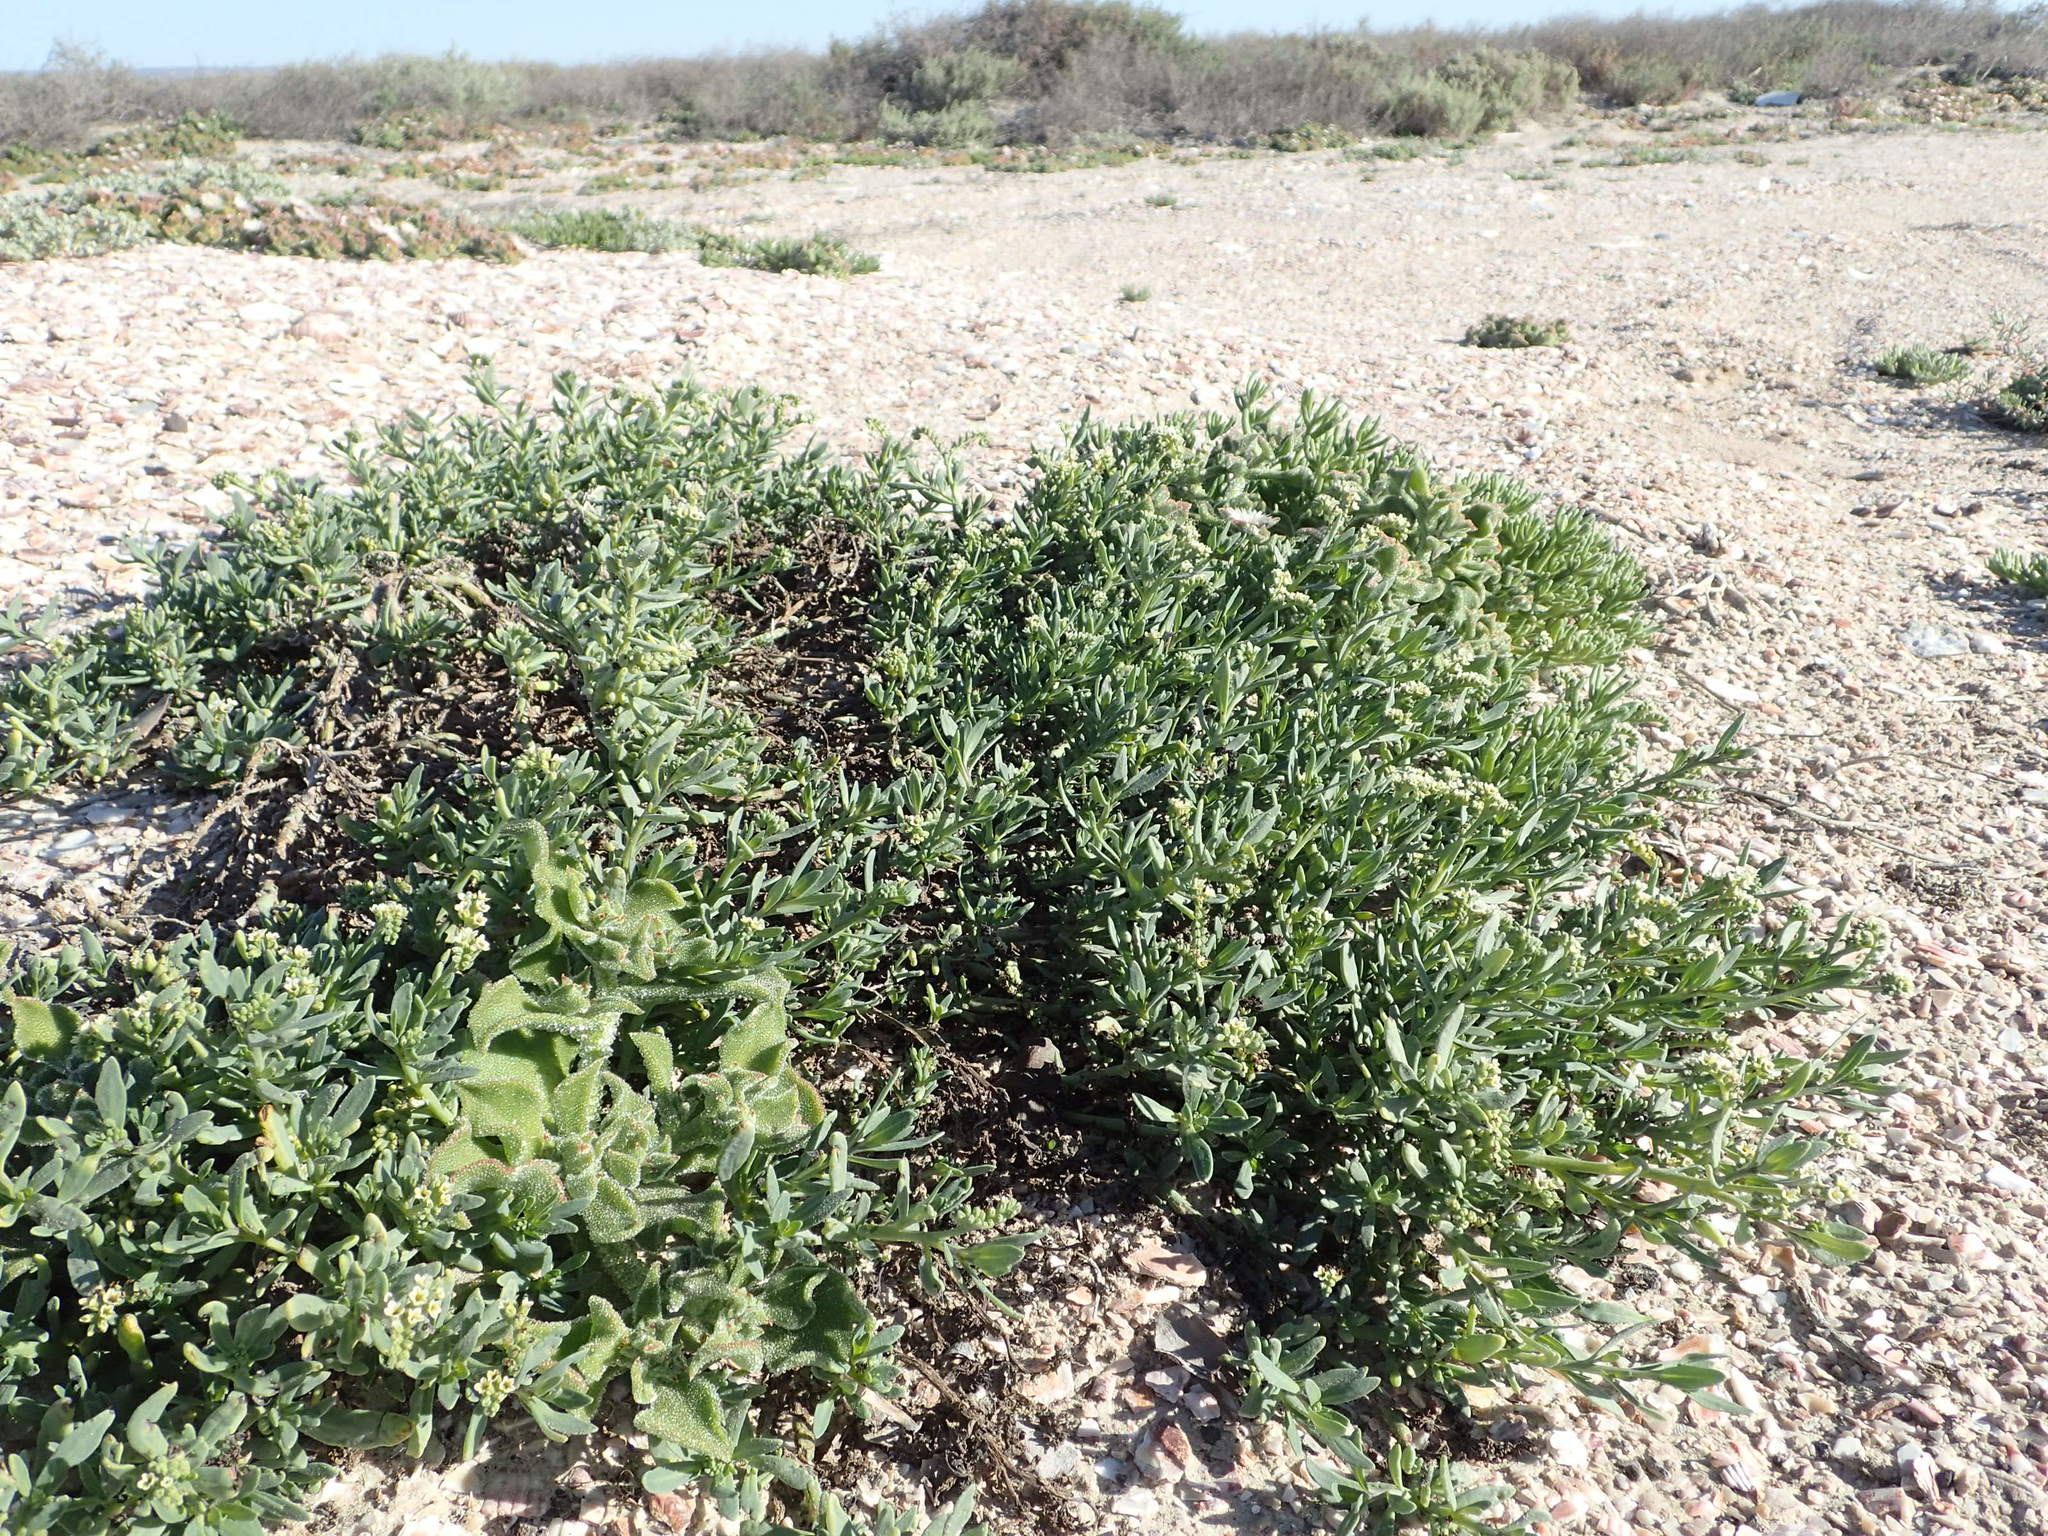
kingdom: Plantae
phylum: Tracheophyta
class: Magnoliopsida
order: Boraginales
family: Heliotropiaceae
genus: Heliotropium
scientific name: Heliotropium curassavicum
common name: Seaside heliotrope
